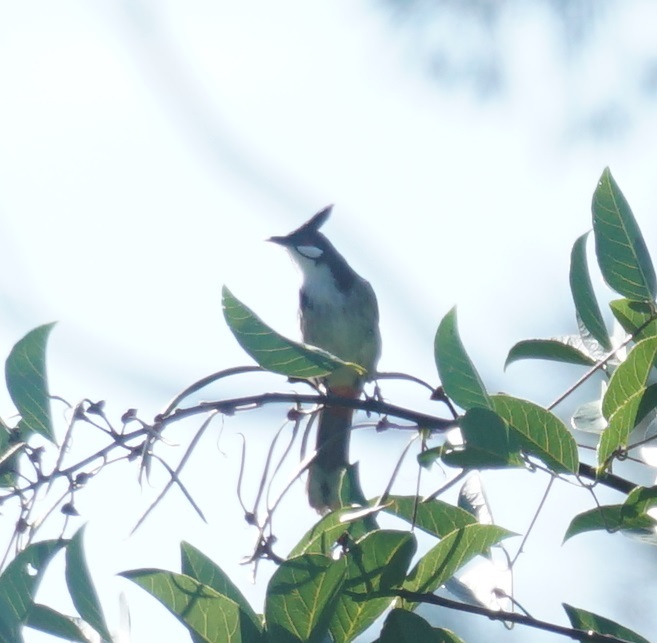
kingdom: Animalia
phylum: Chordata
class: Aves
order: Passeriformes
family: Pycnonotidae
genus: Pycnonotus
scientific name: Pycnonotus jocosus
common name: Red-whiskered bulbul
